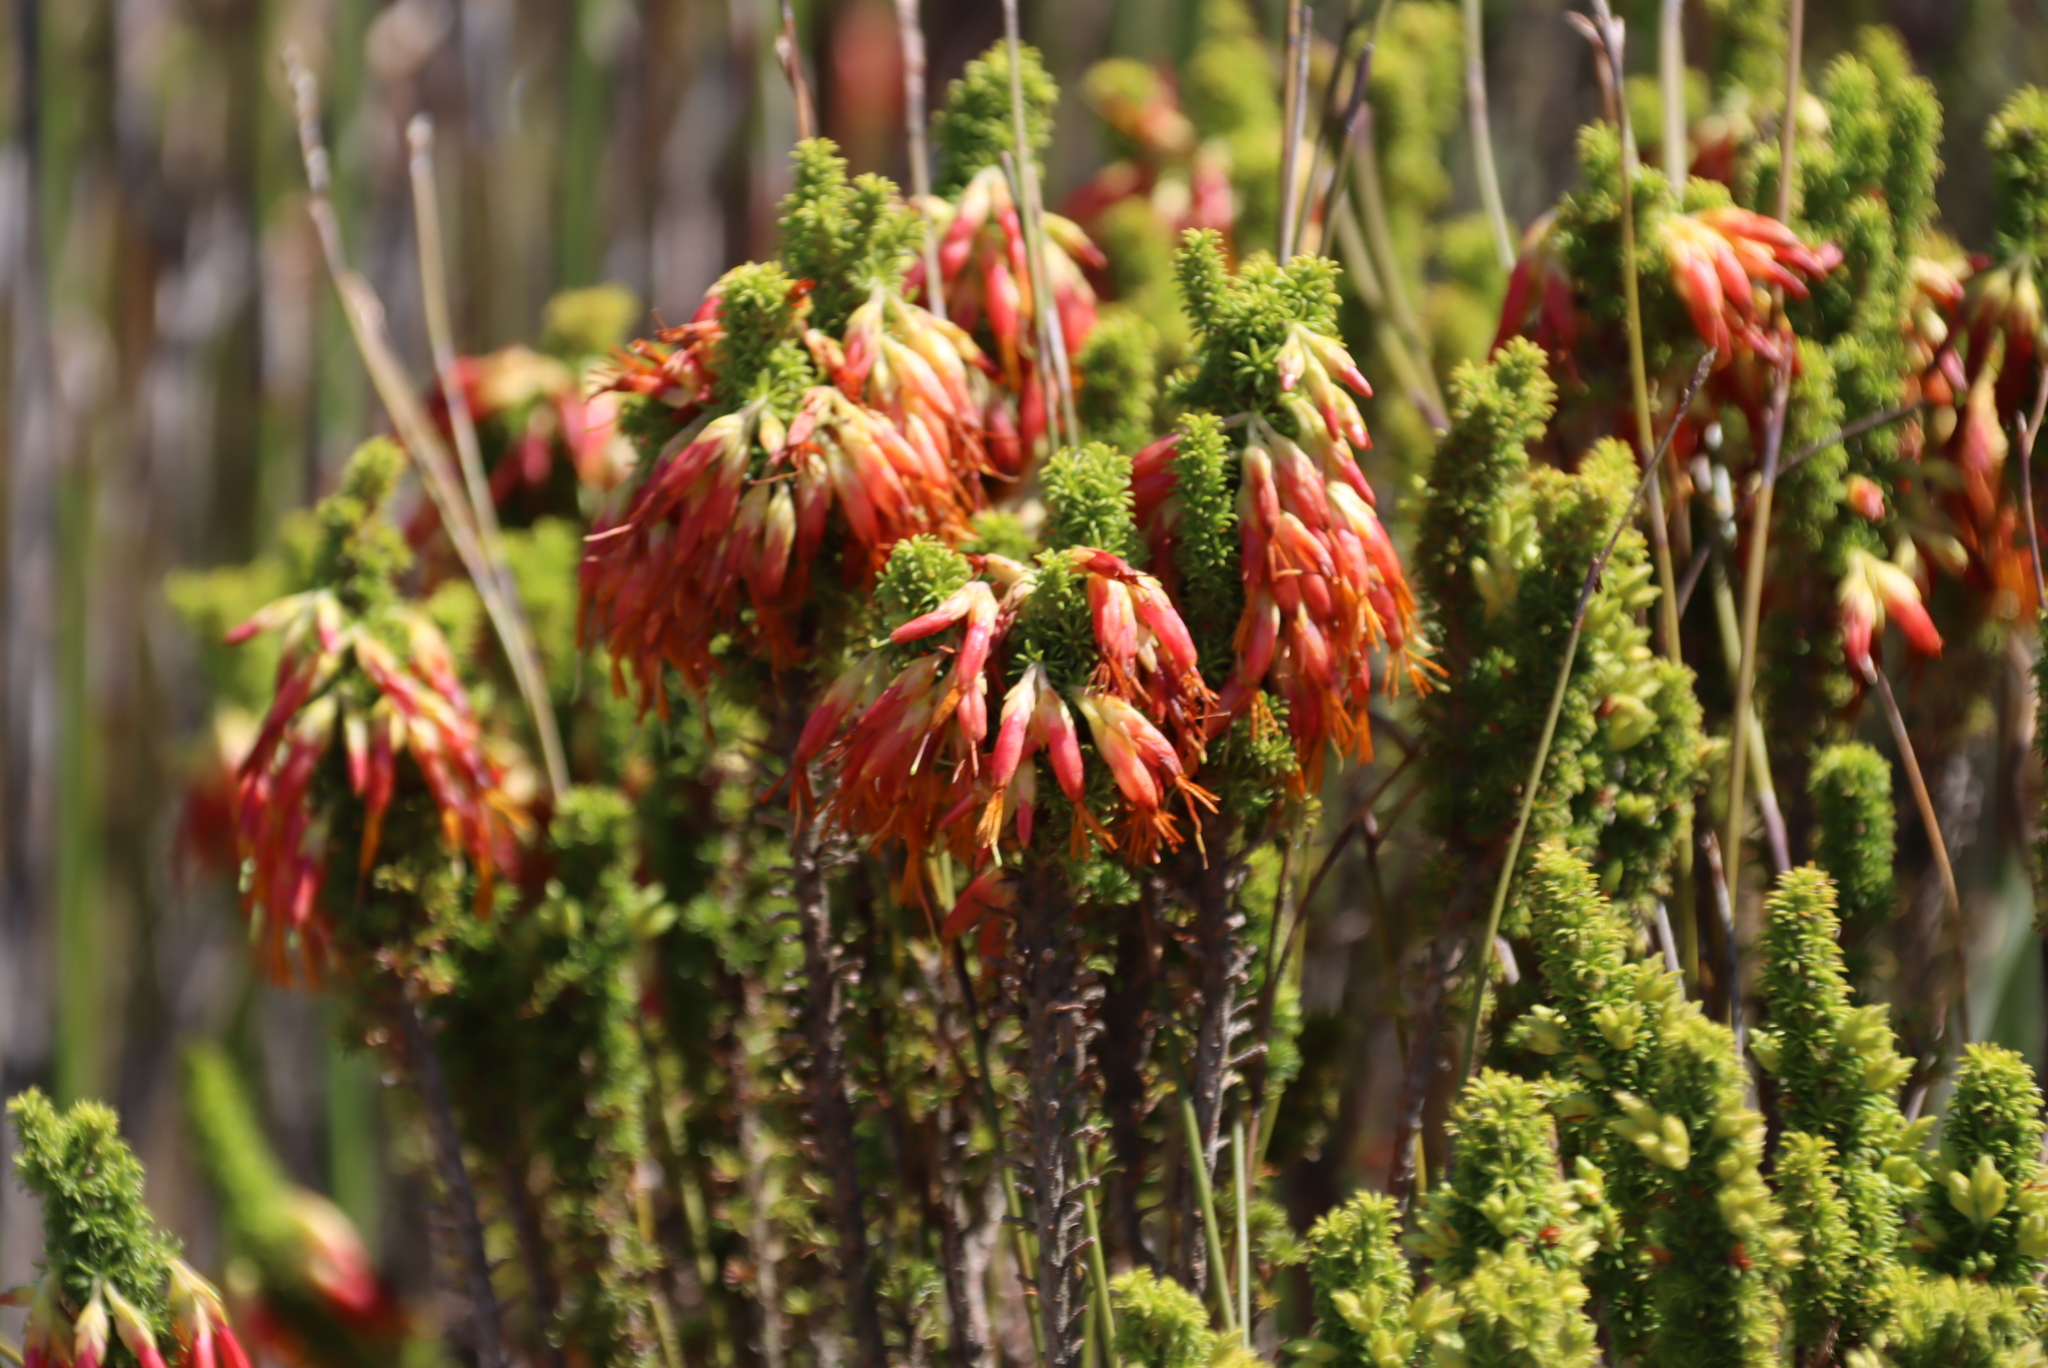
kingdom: Plantae
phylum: Tracheophyta
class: Magnoliopsida
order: Ericales
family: Ericaceae
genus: Erica
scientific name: Erica coccinea
